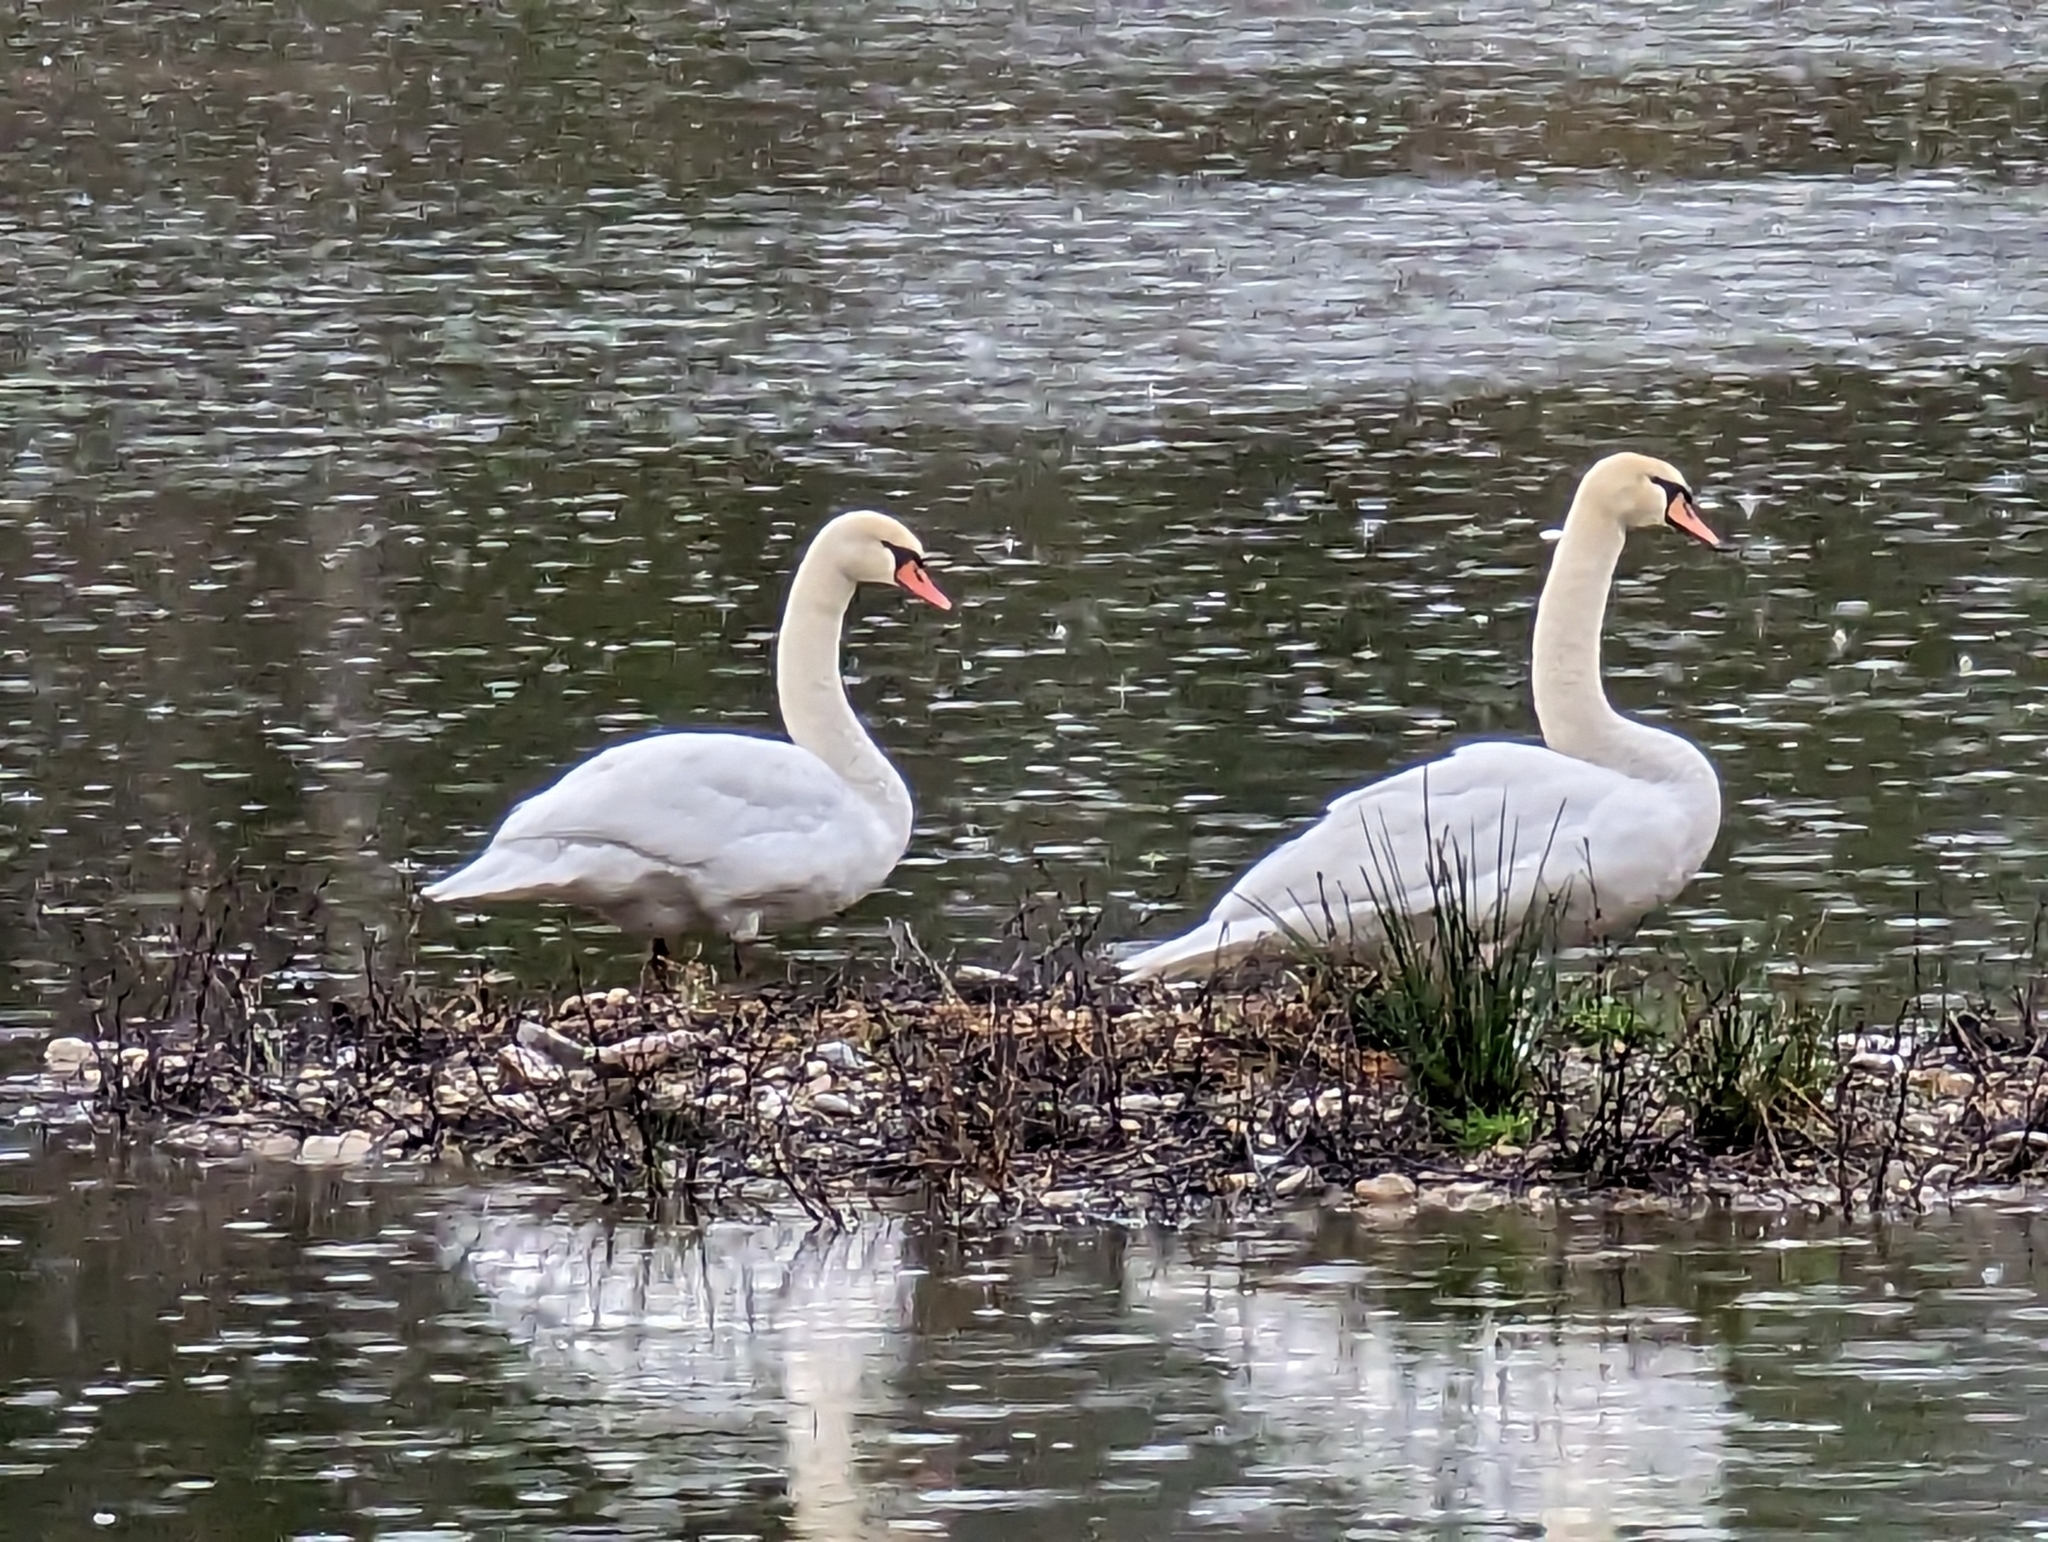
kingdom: Animalia
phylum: Chordata
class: Aves
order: Anseriformes
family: Anatidae
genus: Cygnus
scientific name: Cygnus olor
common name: Mute swan
